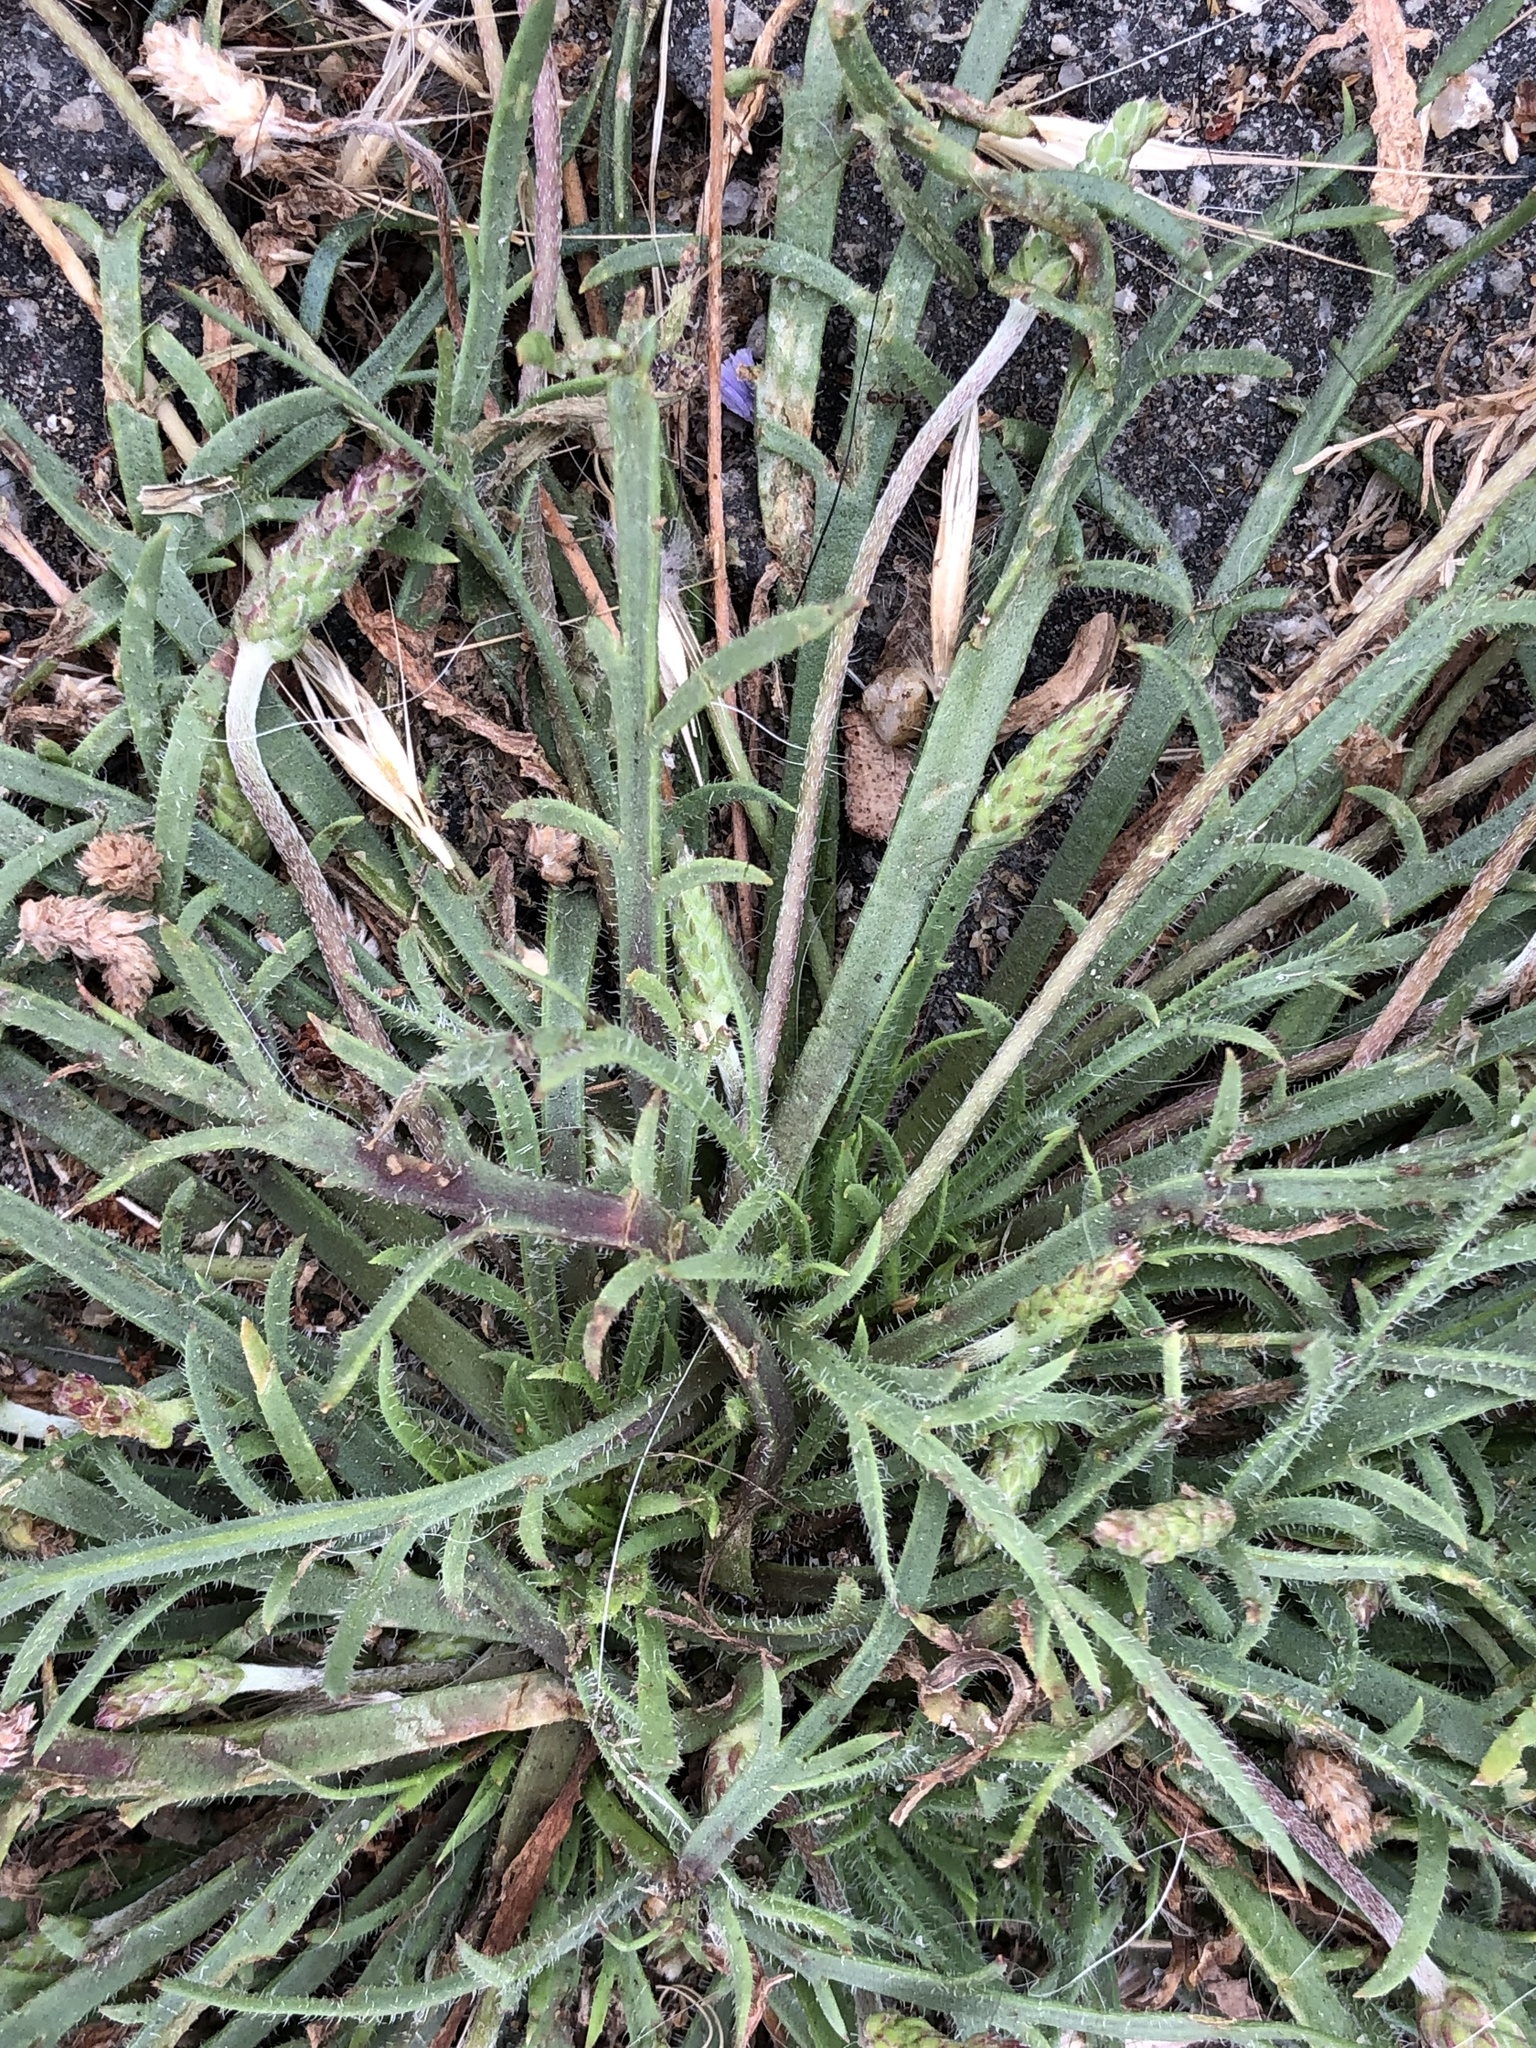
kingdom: Plantae
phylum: Tracheophyta
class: Magnoliopsida
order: Lamiales
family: Plantaginaceae
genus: Plantago
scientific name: Plantago coronopus
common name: Buck's-horn plantain
